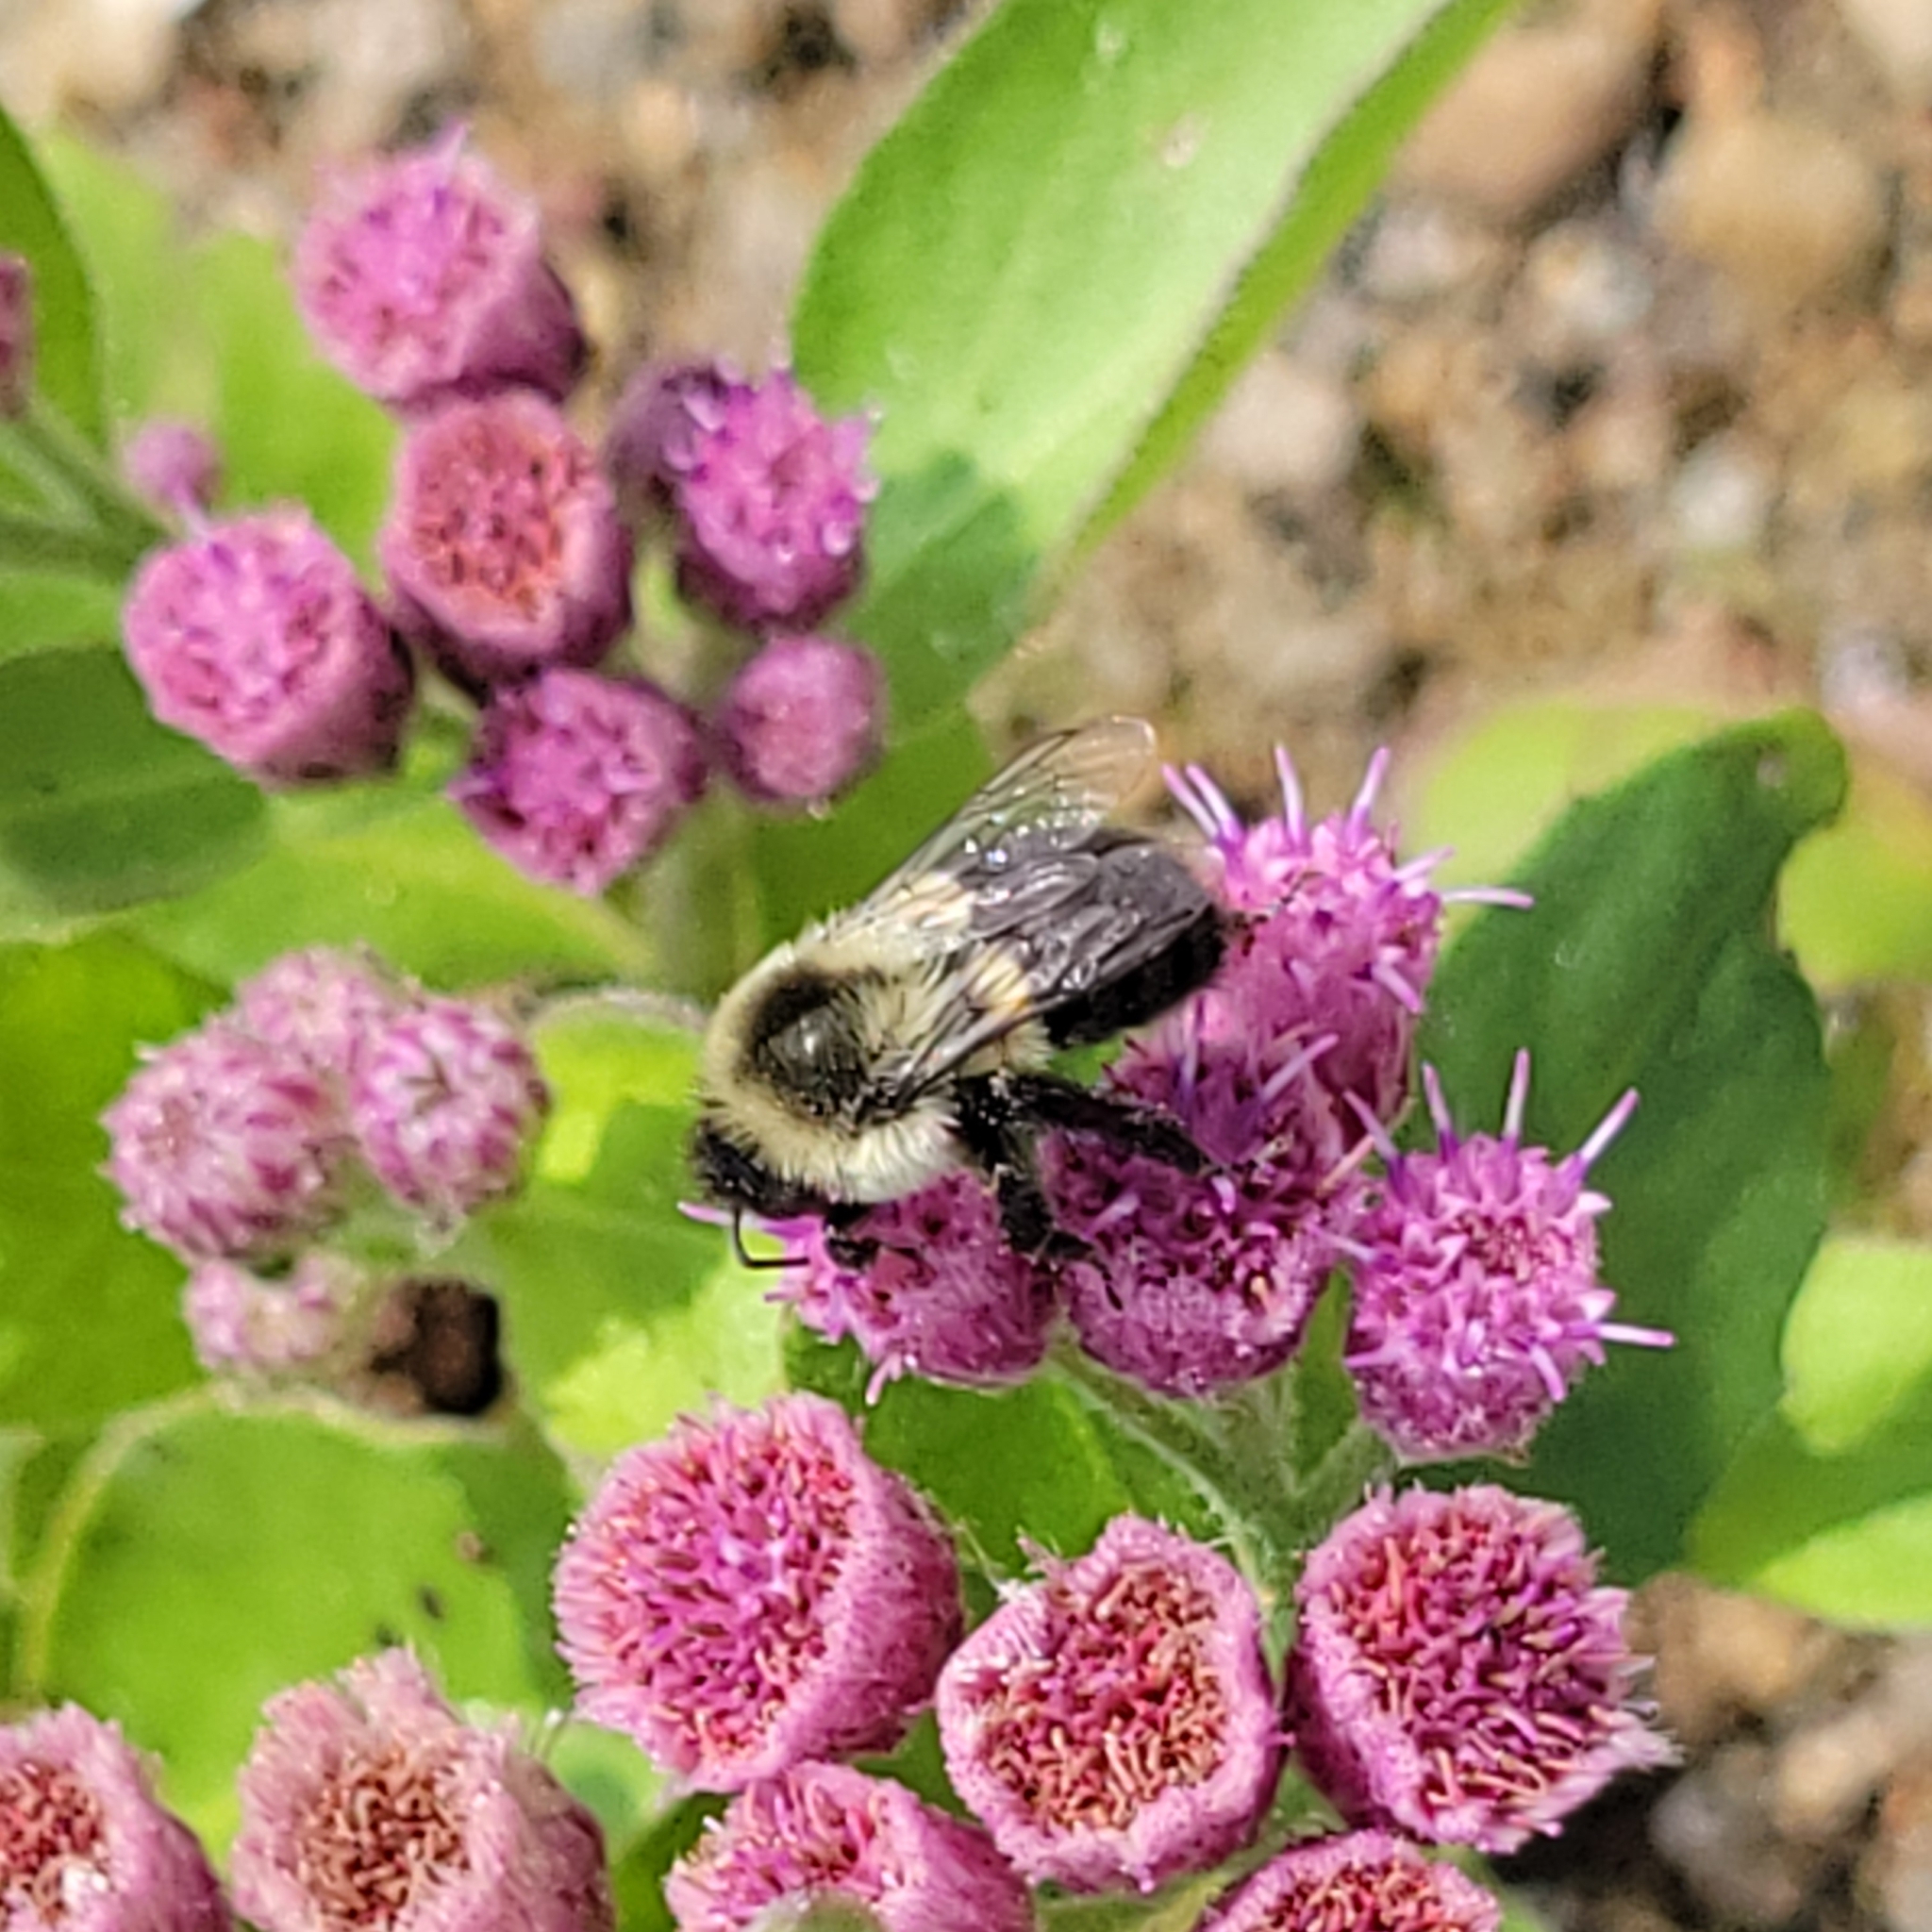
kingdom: Animalia
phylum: Arthropoda
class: Insecta
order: Hymenoptera
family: Apidae
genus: Bombus
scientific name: Bombus impatiens
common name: Common eastern bumble bee
